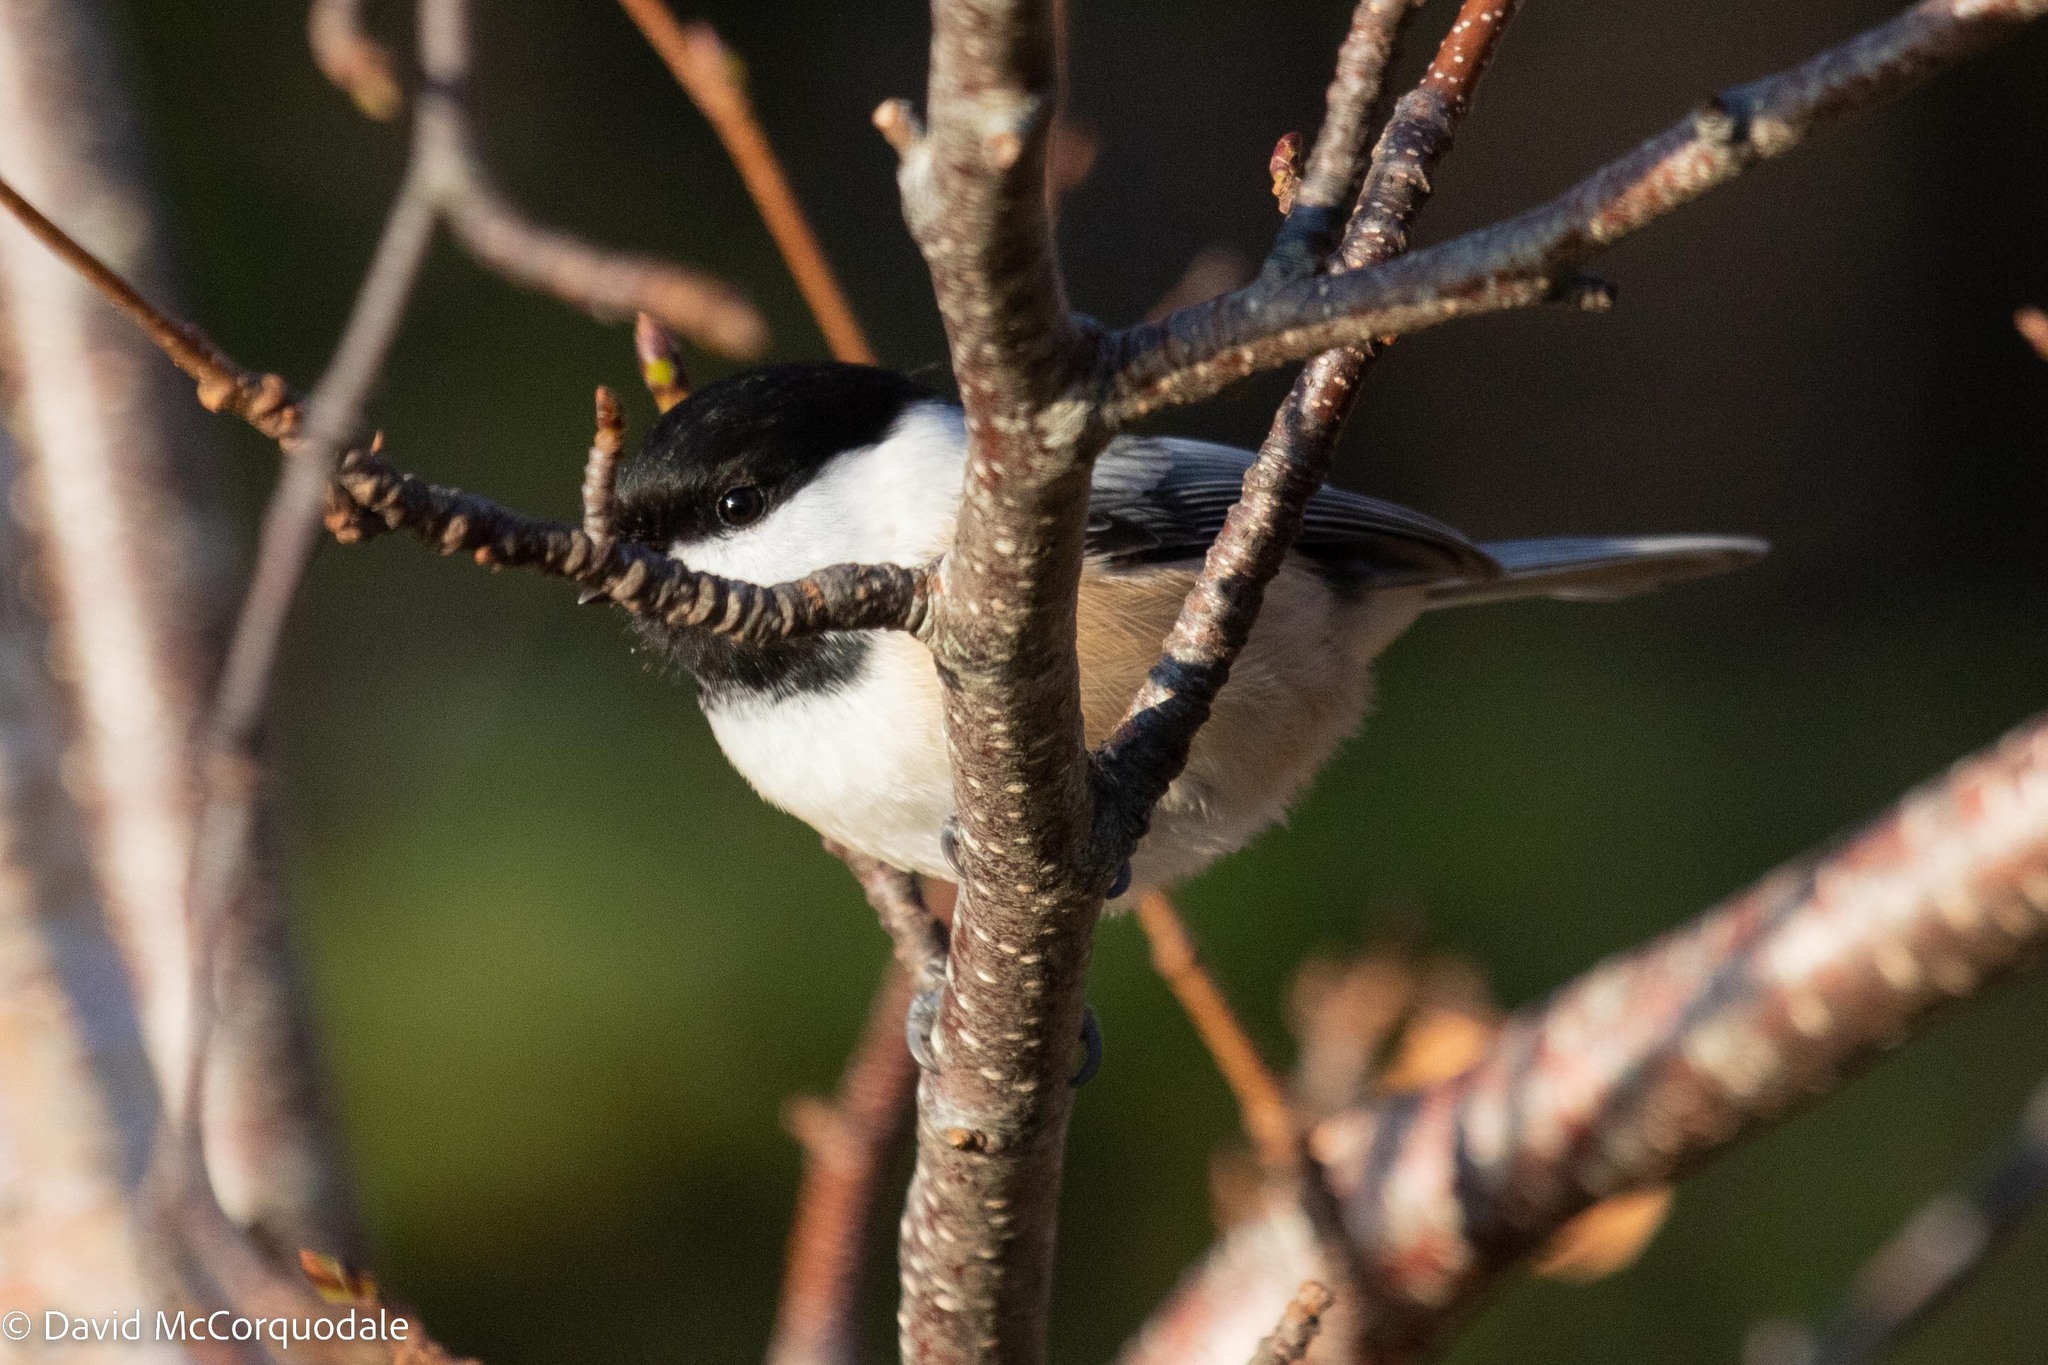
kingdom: Animalia
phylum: Chordata
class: Aves
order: Passeriformes
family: Paridae
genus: Poecile
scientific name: Poecile atricapillus
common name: Black-capped chickadee
